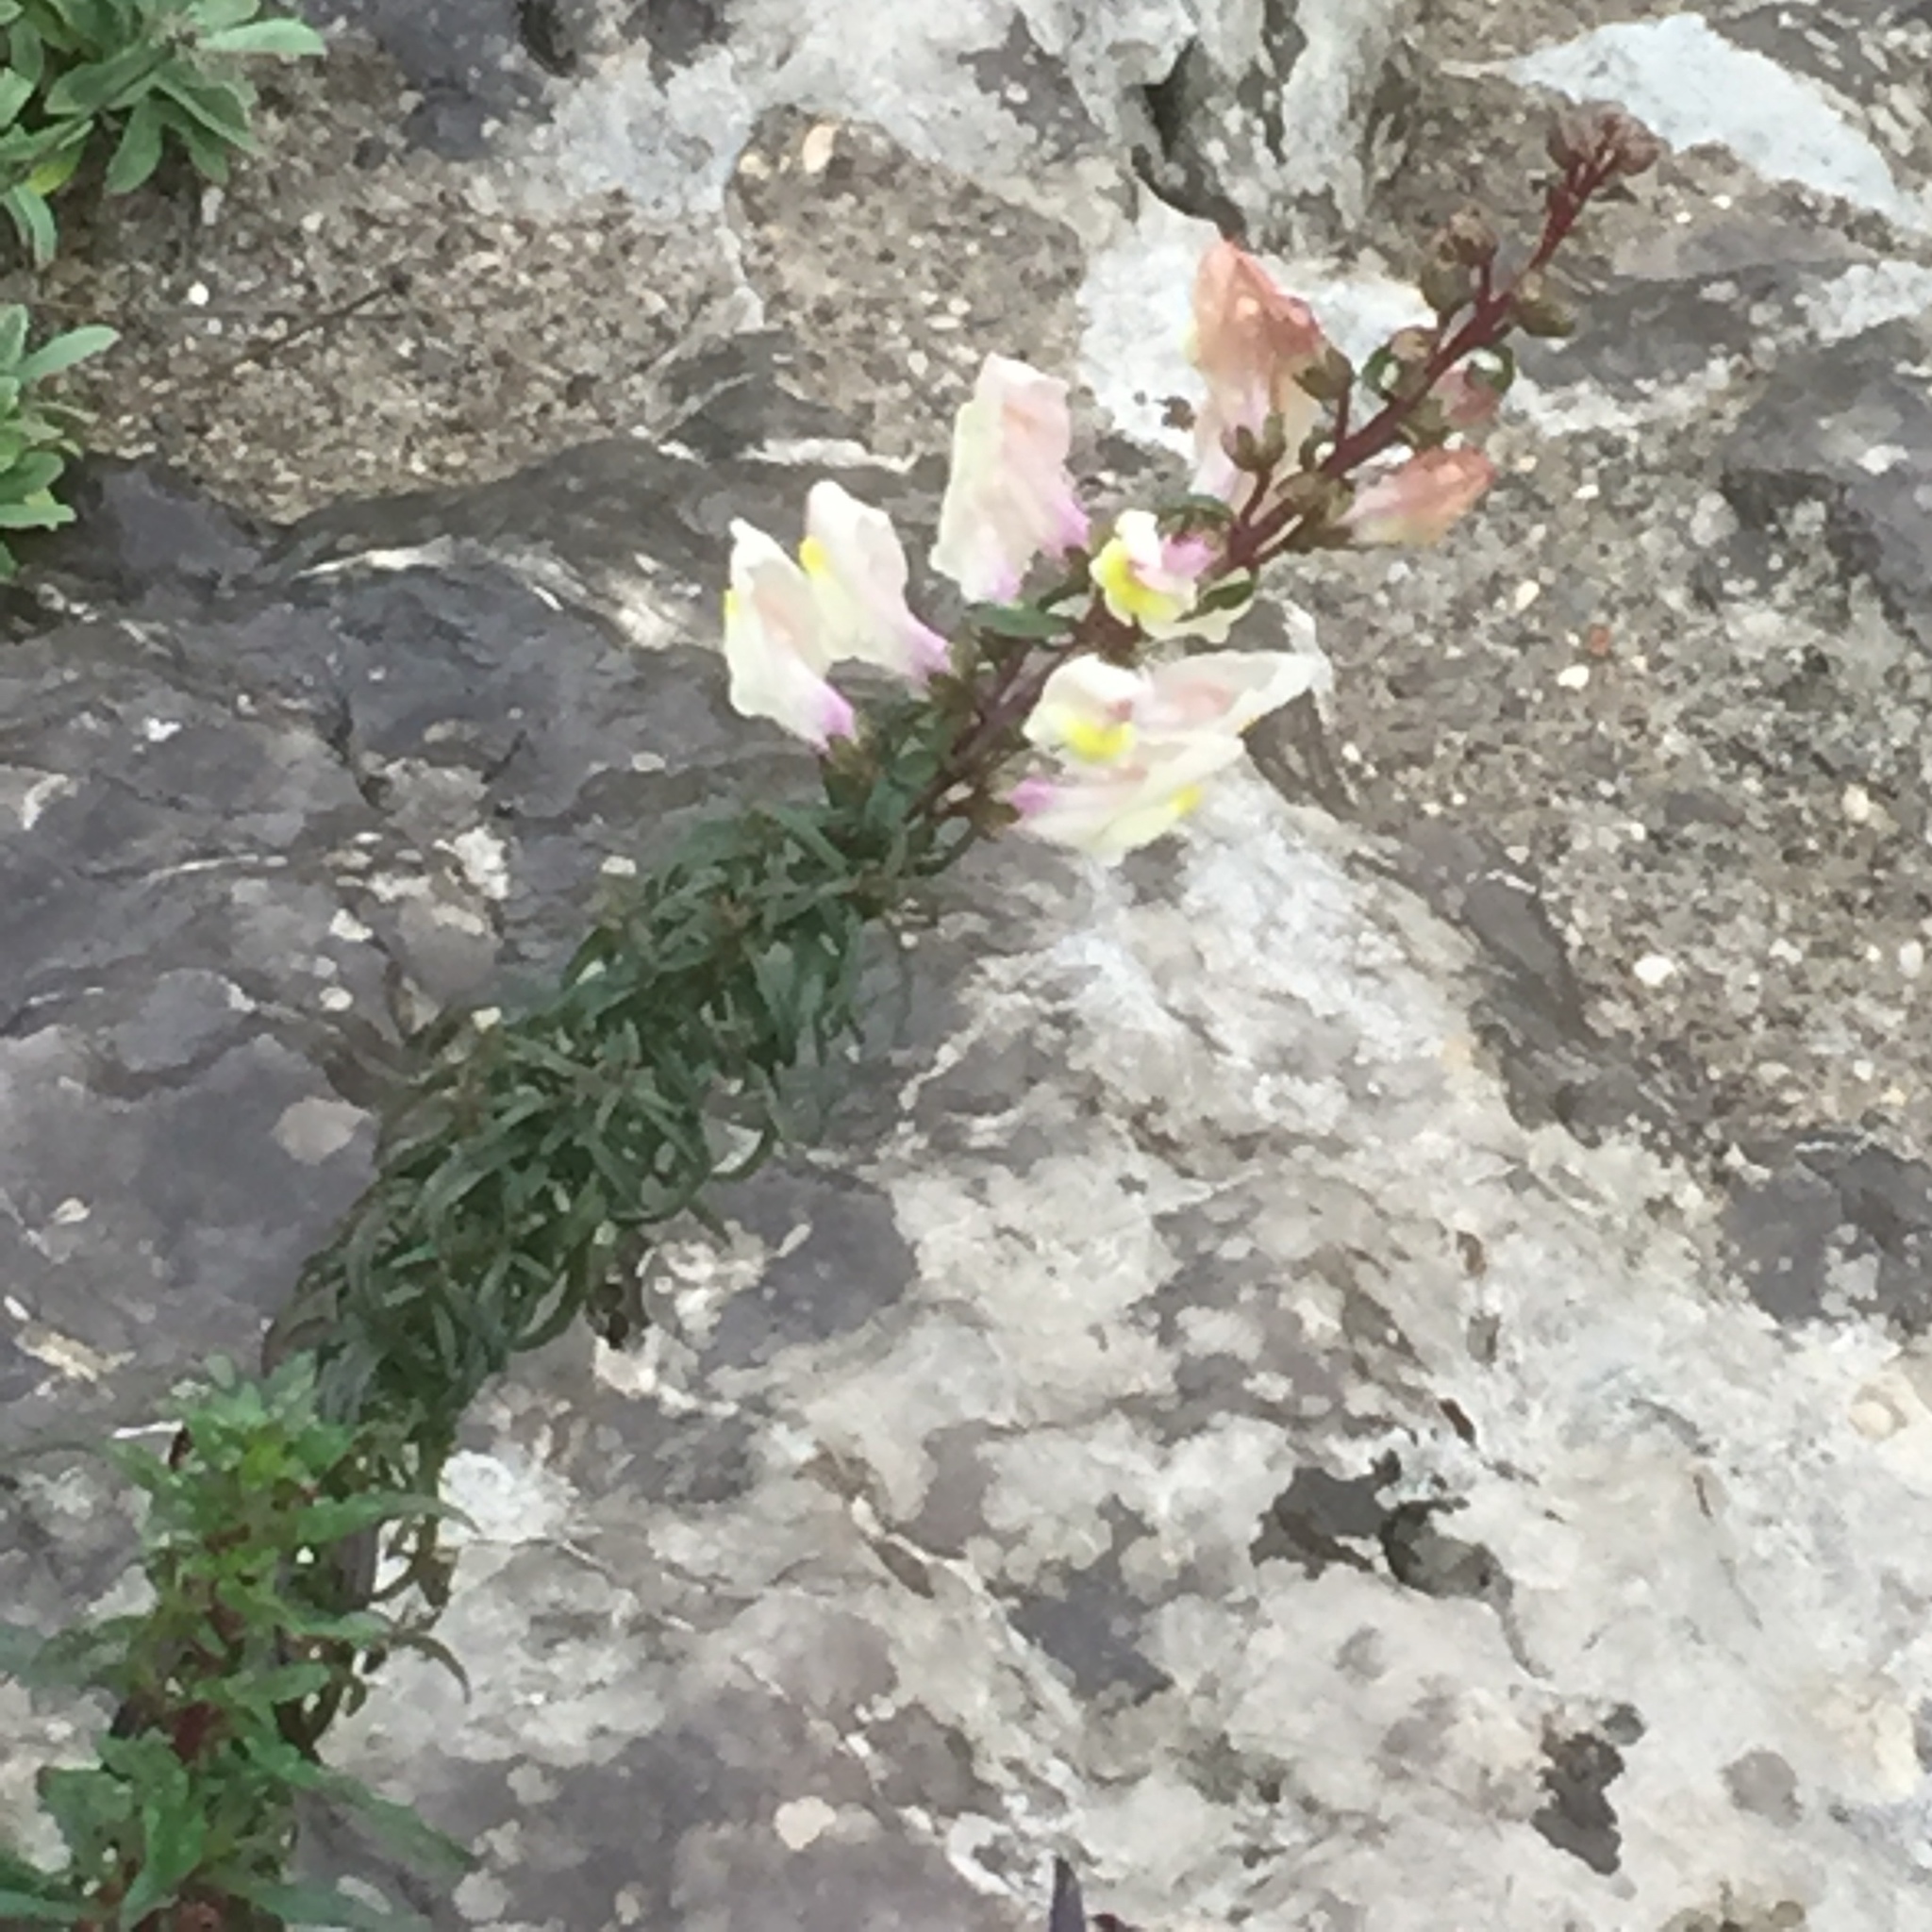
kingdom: Plantae
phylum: Tracheophyta
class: Magnoliopsida
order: Lamiales
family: Plantaginaceae
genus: Antirrhinum
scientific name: Antirrhinum siculum
